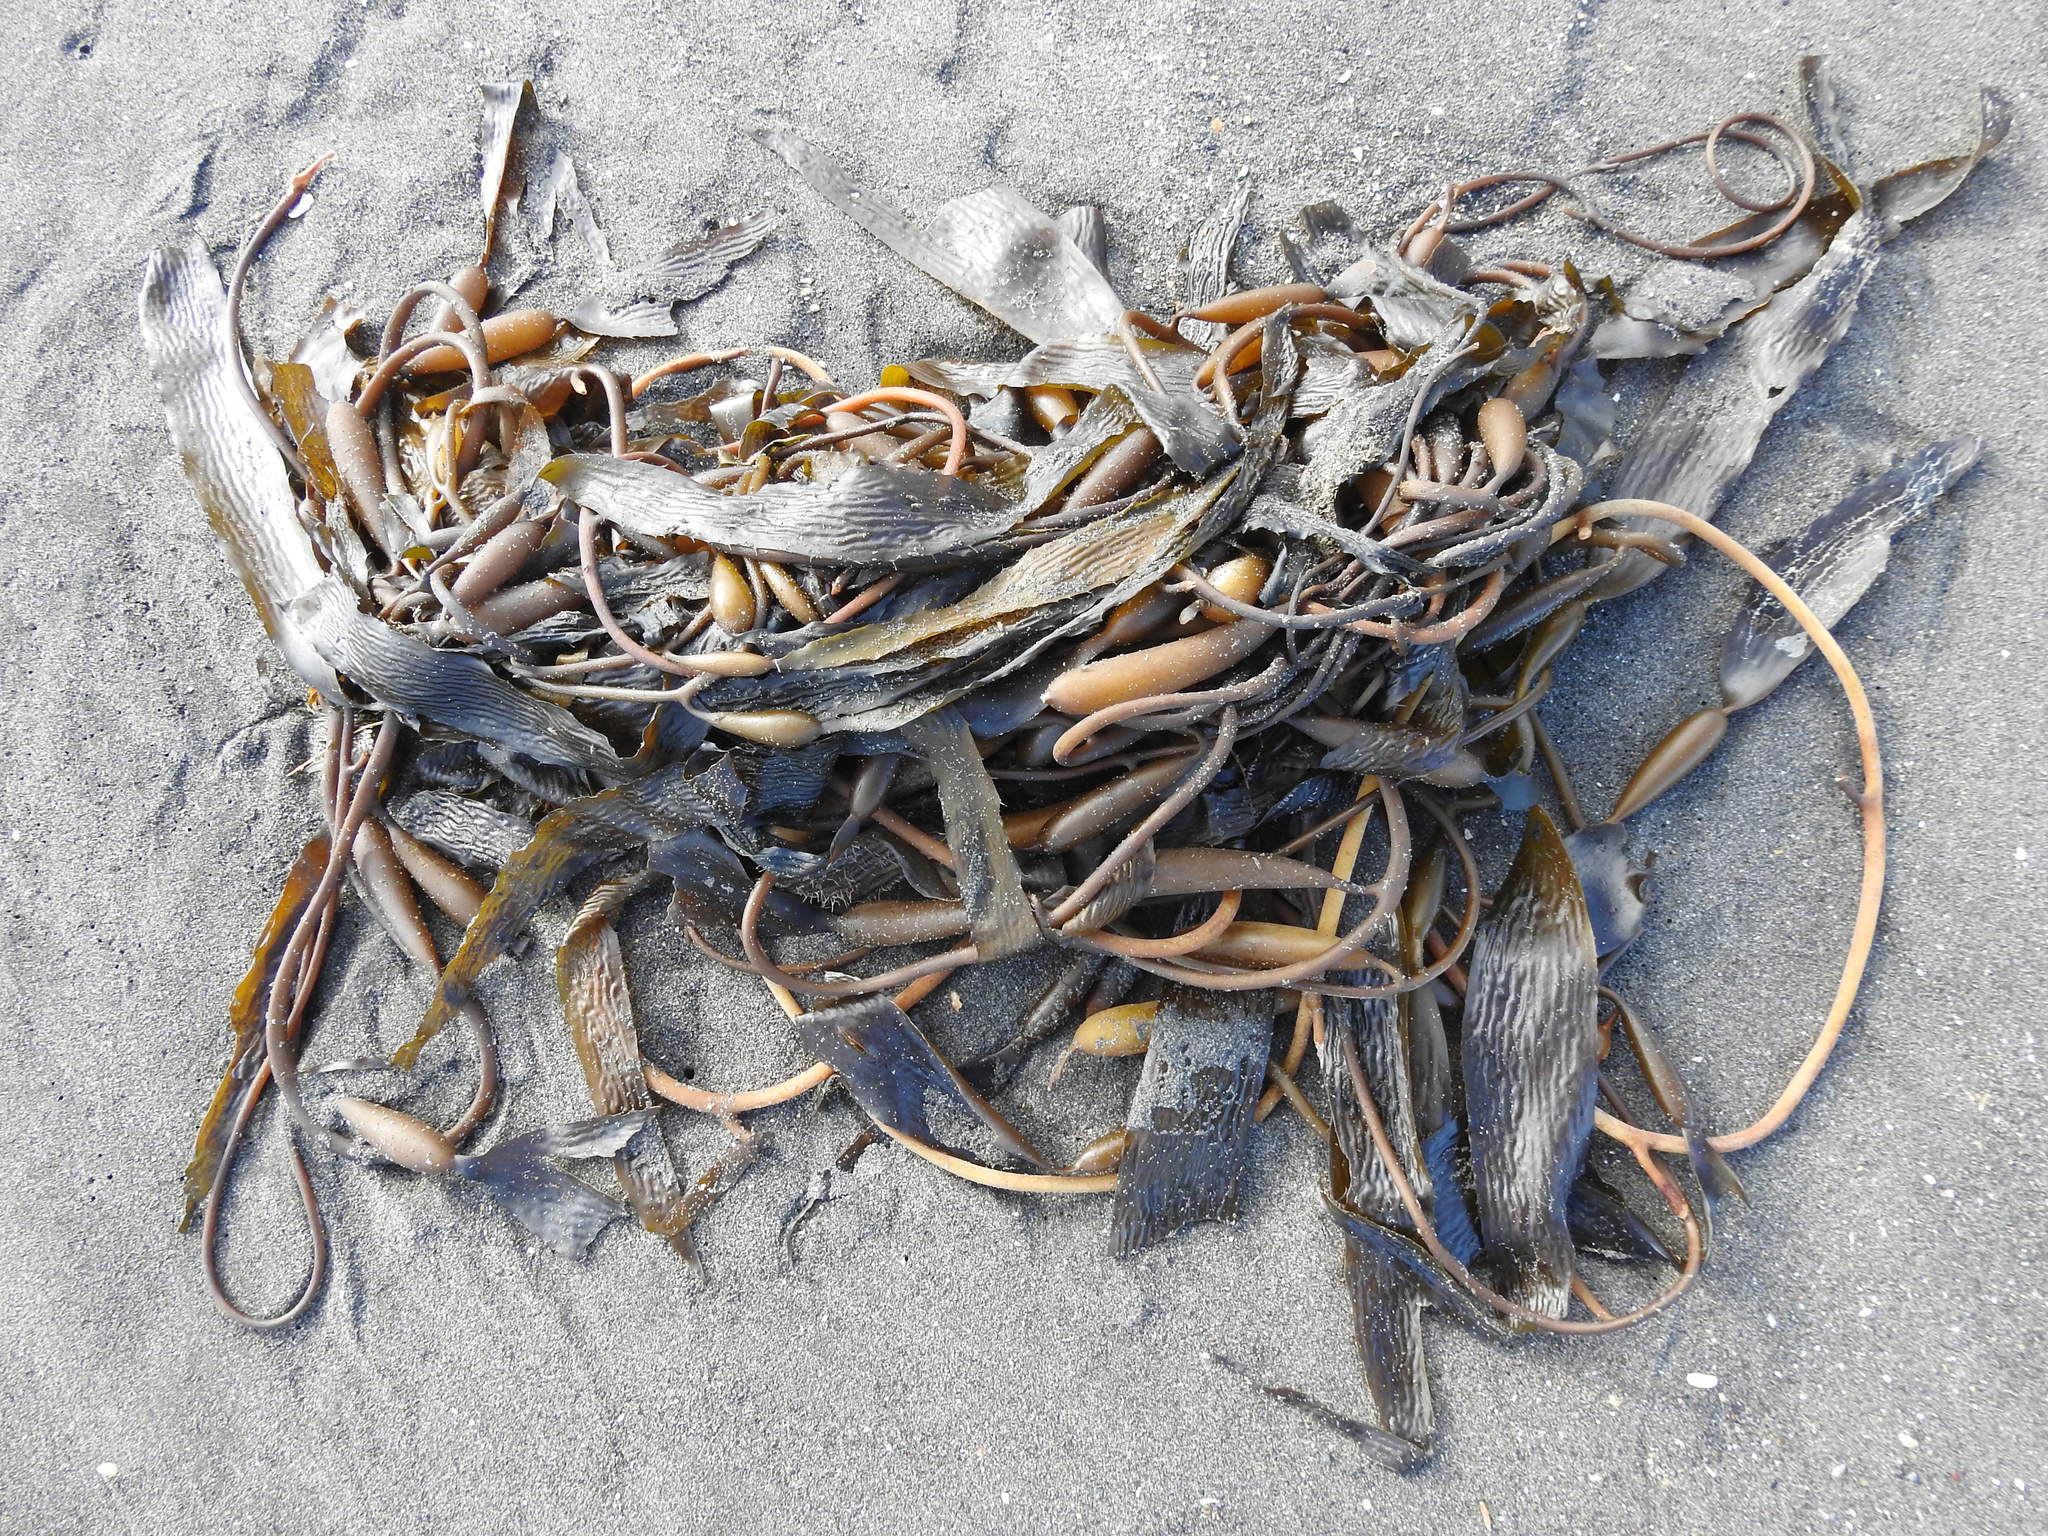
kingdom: Chromista
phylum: Ochrophyta
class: Phaeophyceae
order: Laminariales
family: Laminariaceae
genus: Macrocystis
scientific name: Macrocystis pyrifera
